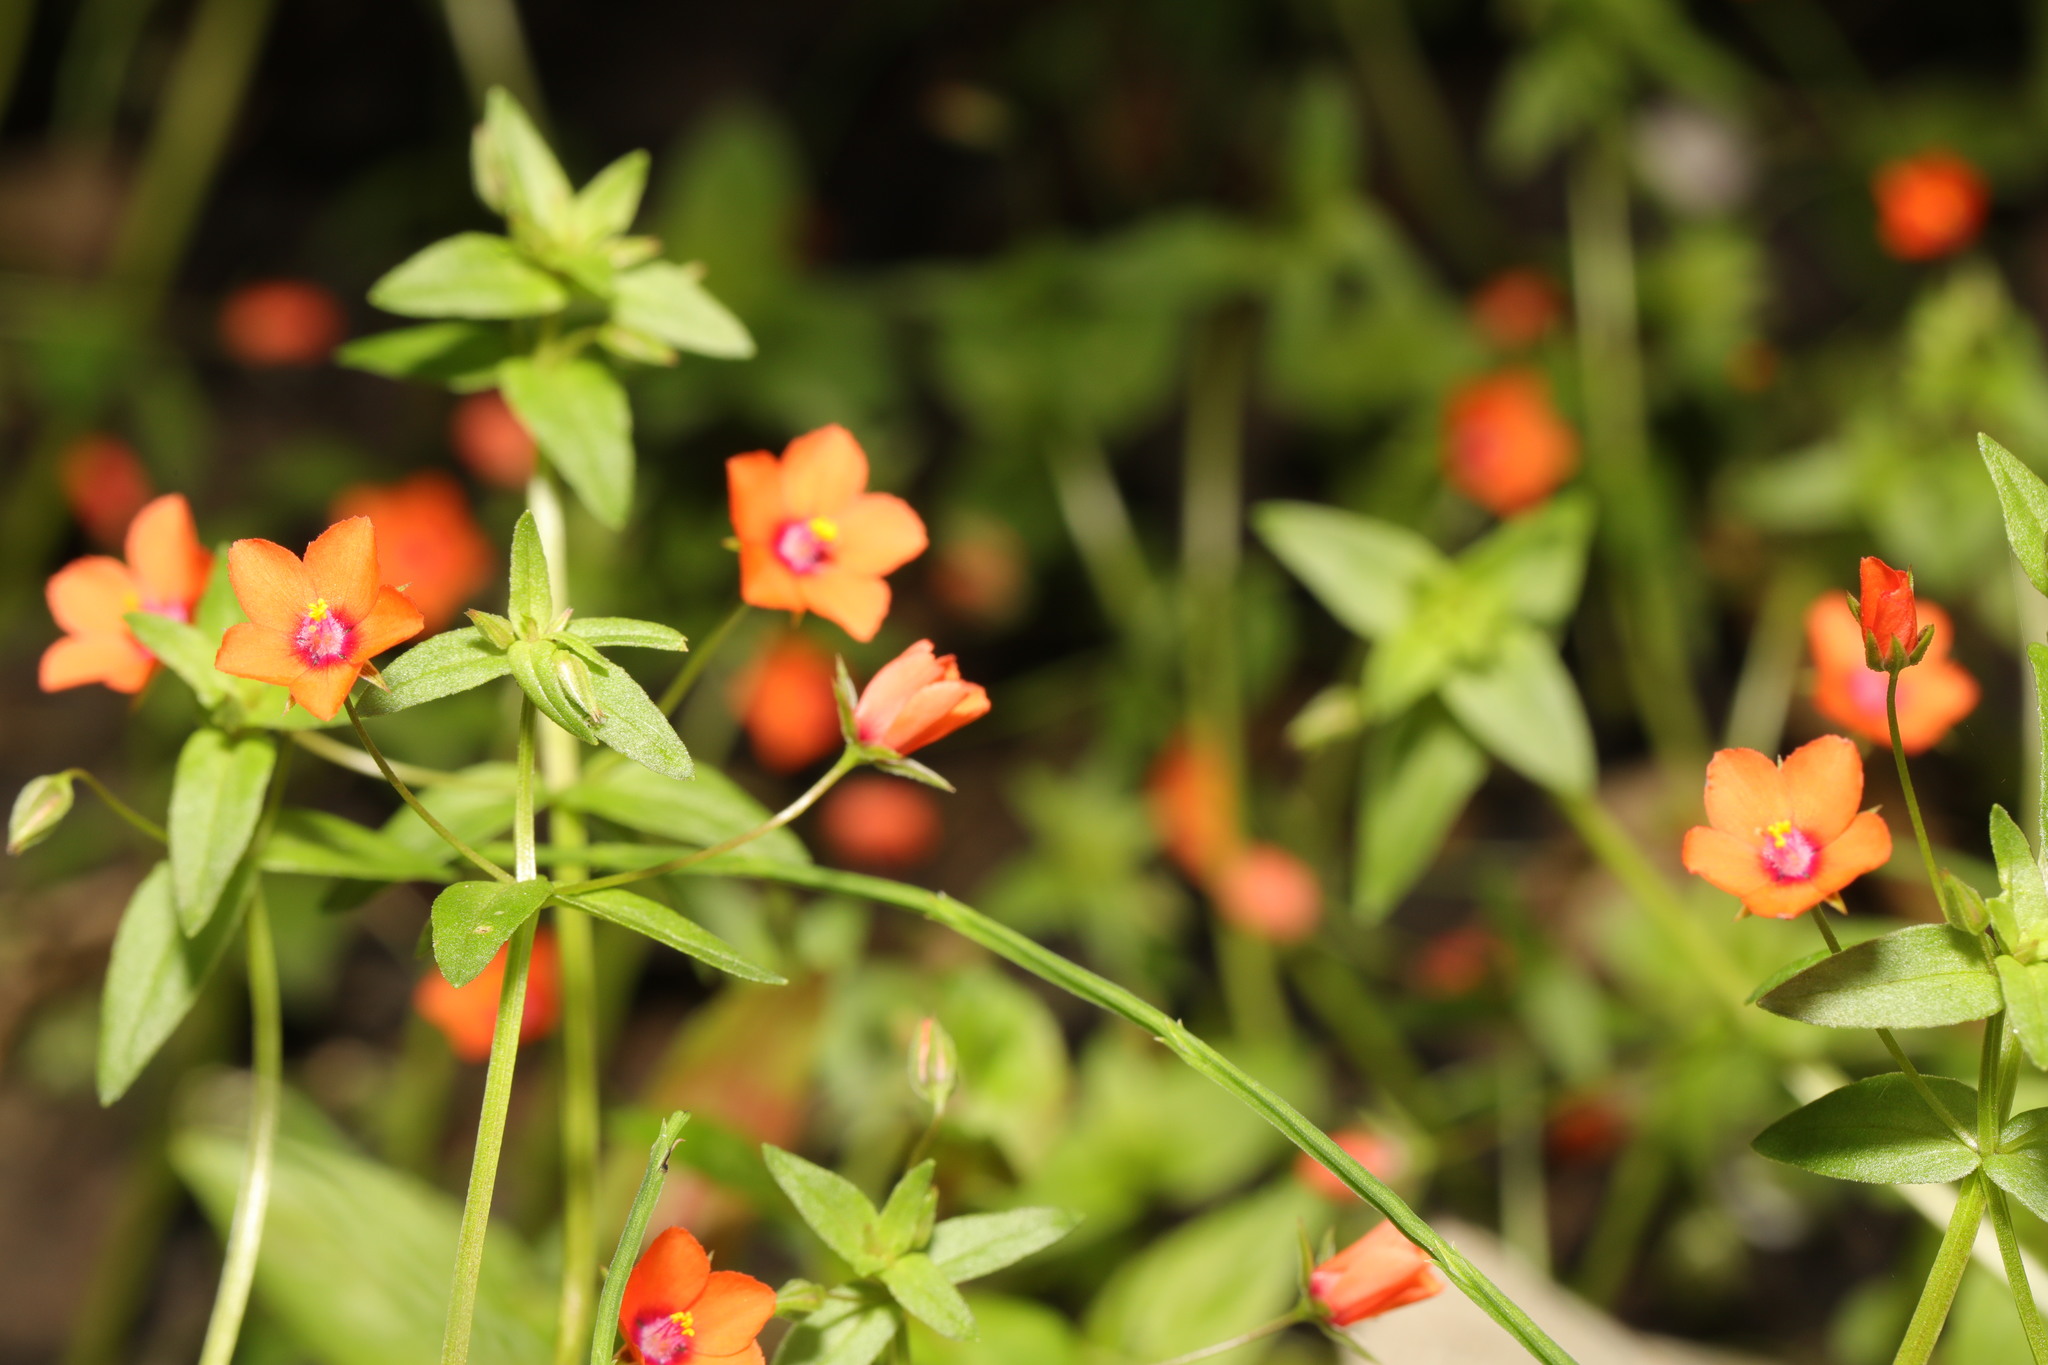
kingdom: Plantae
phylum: Tracheophyta
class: Magnoliopsida
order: Ericales
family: Primulaceae
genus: Lysimachia
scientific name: Lysimachia arvensis
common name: Scarlet pimpernel
